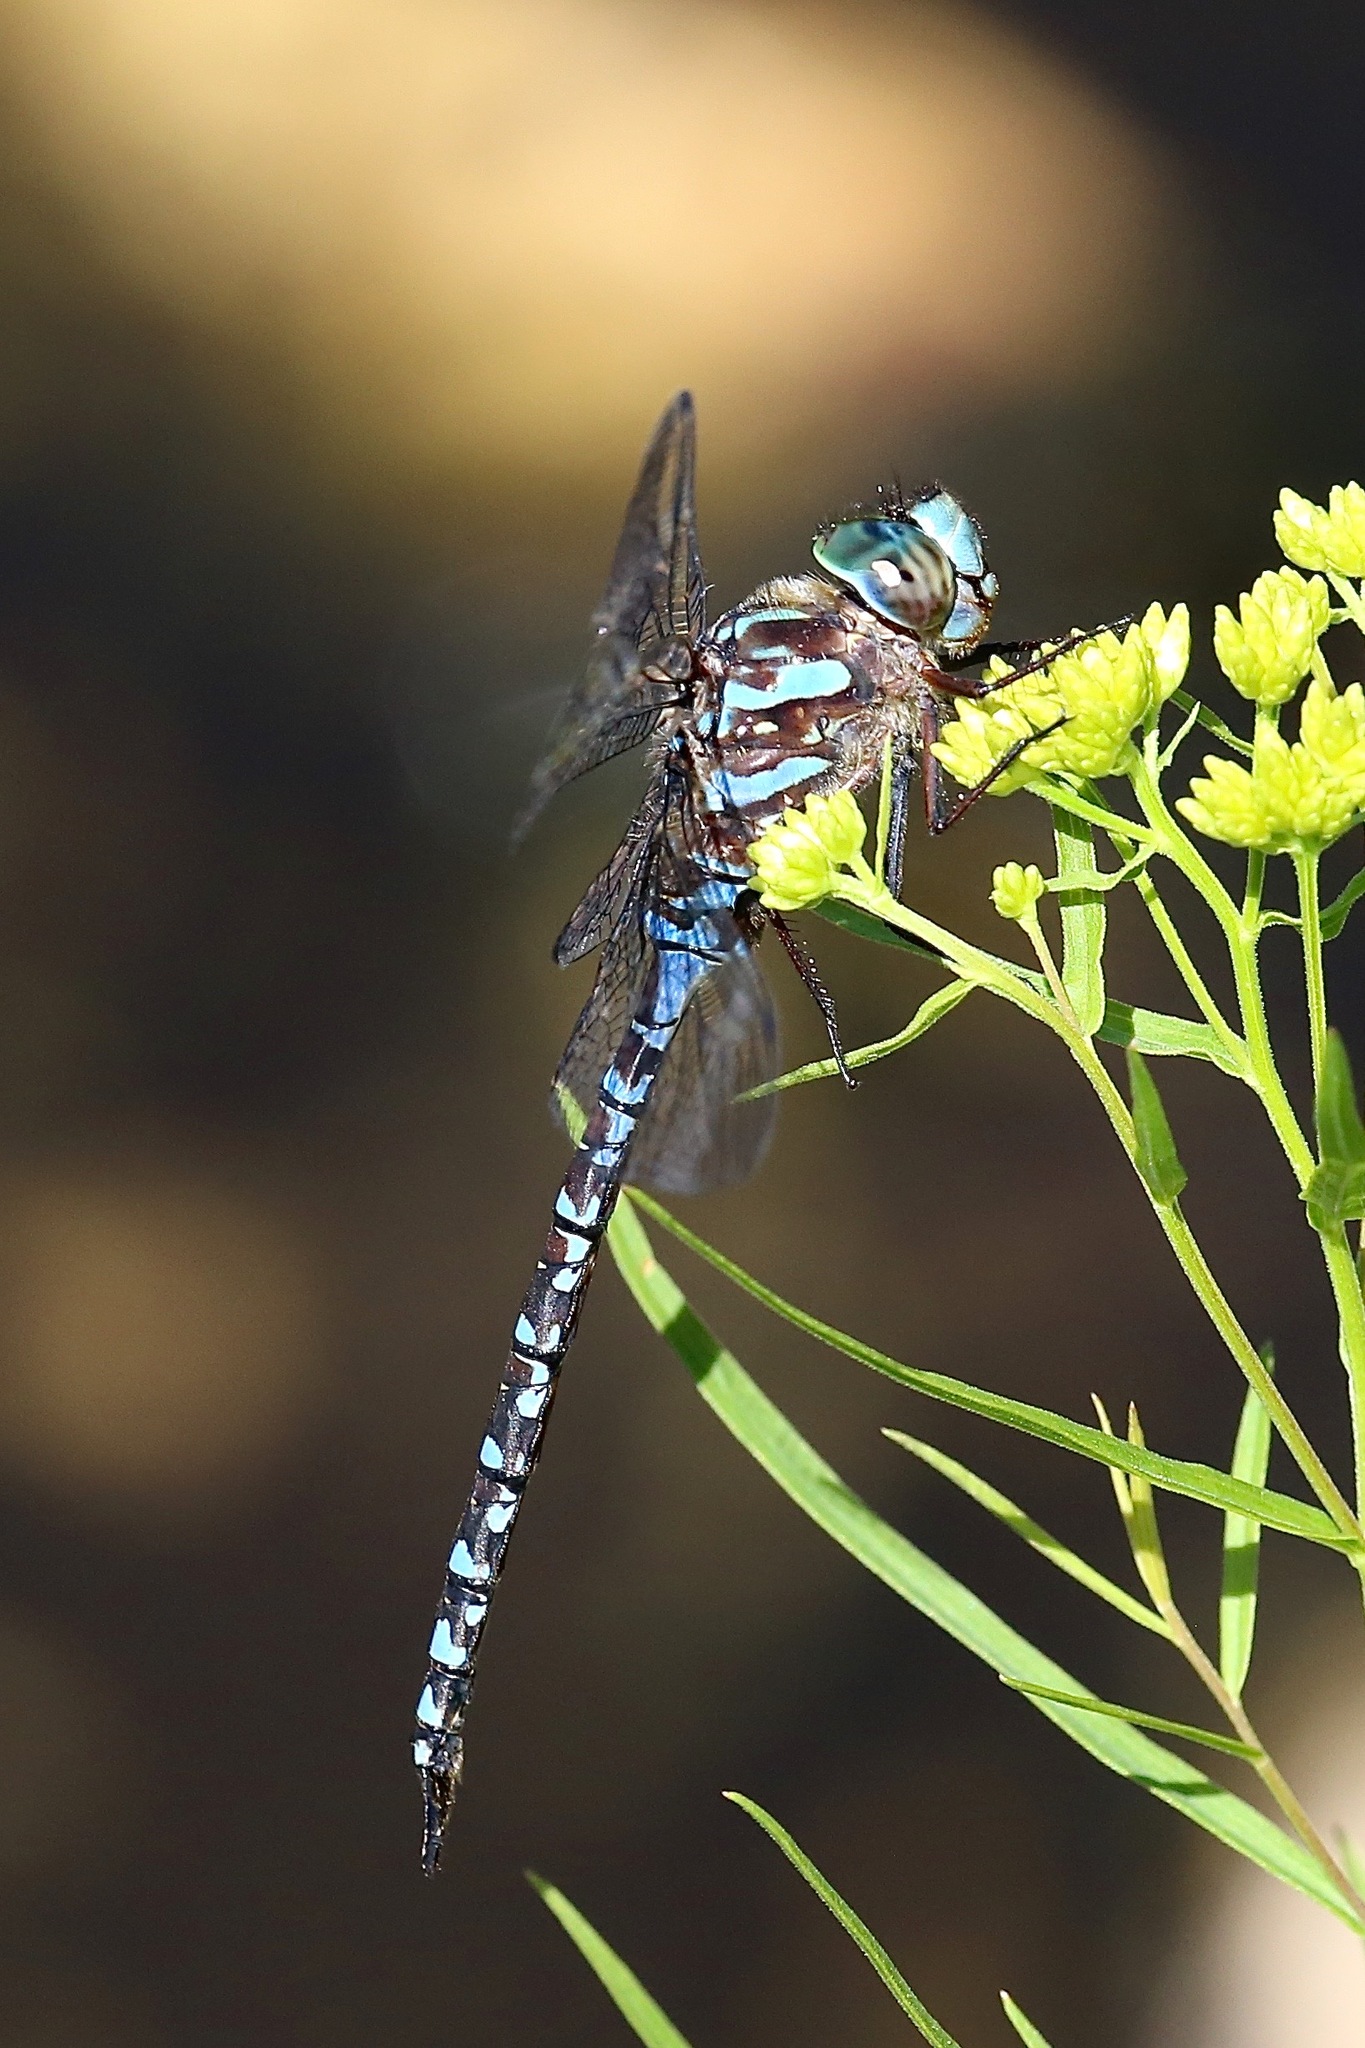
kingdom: Animalia
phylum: Arthropoda
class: Insecta
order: Odonata
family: Aeshnidae
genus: Aeshna
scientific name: Aeshna canadensis
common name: Canada darner
